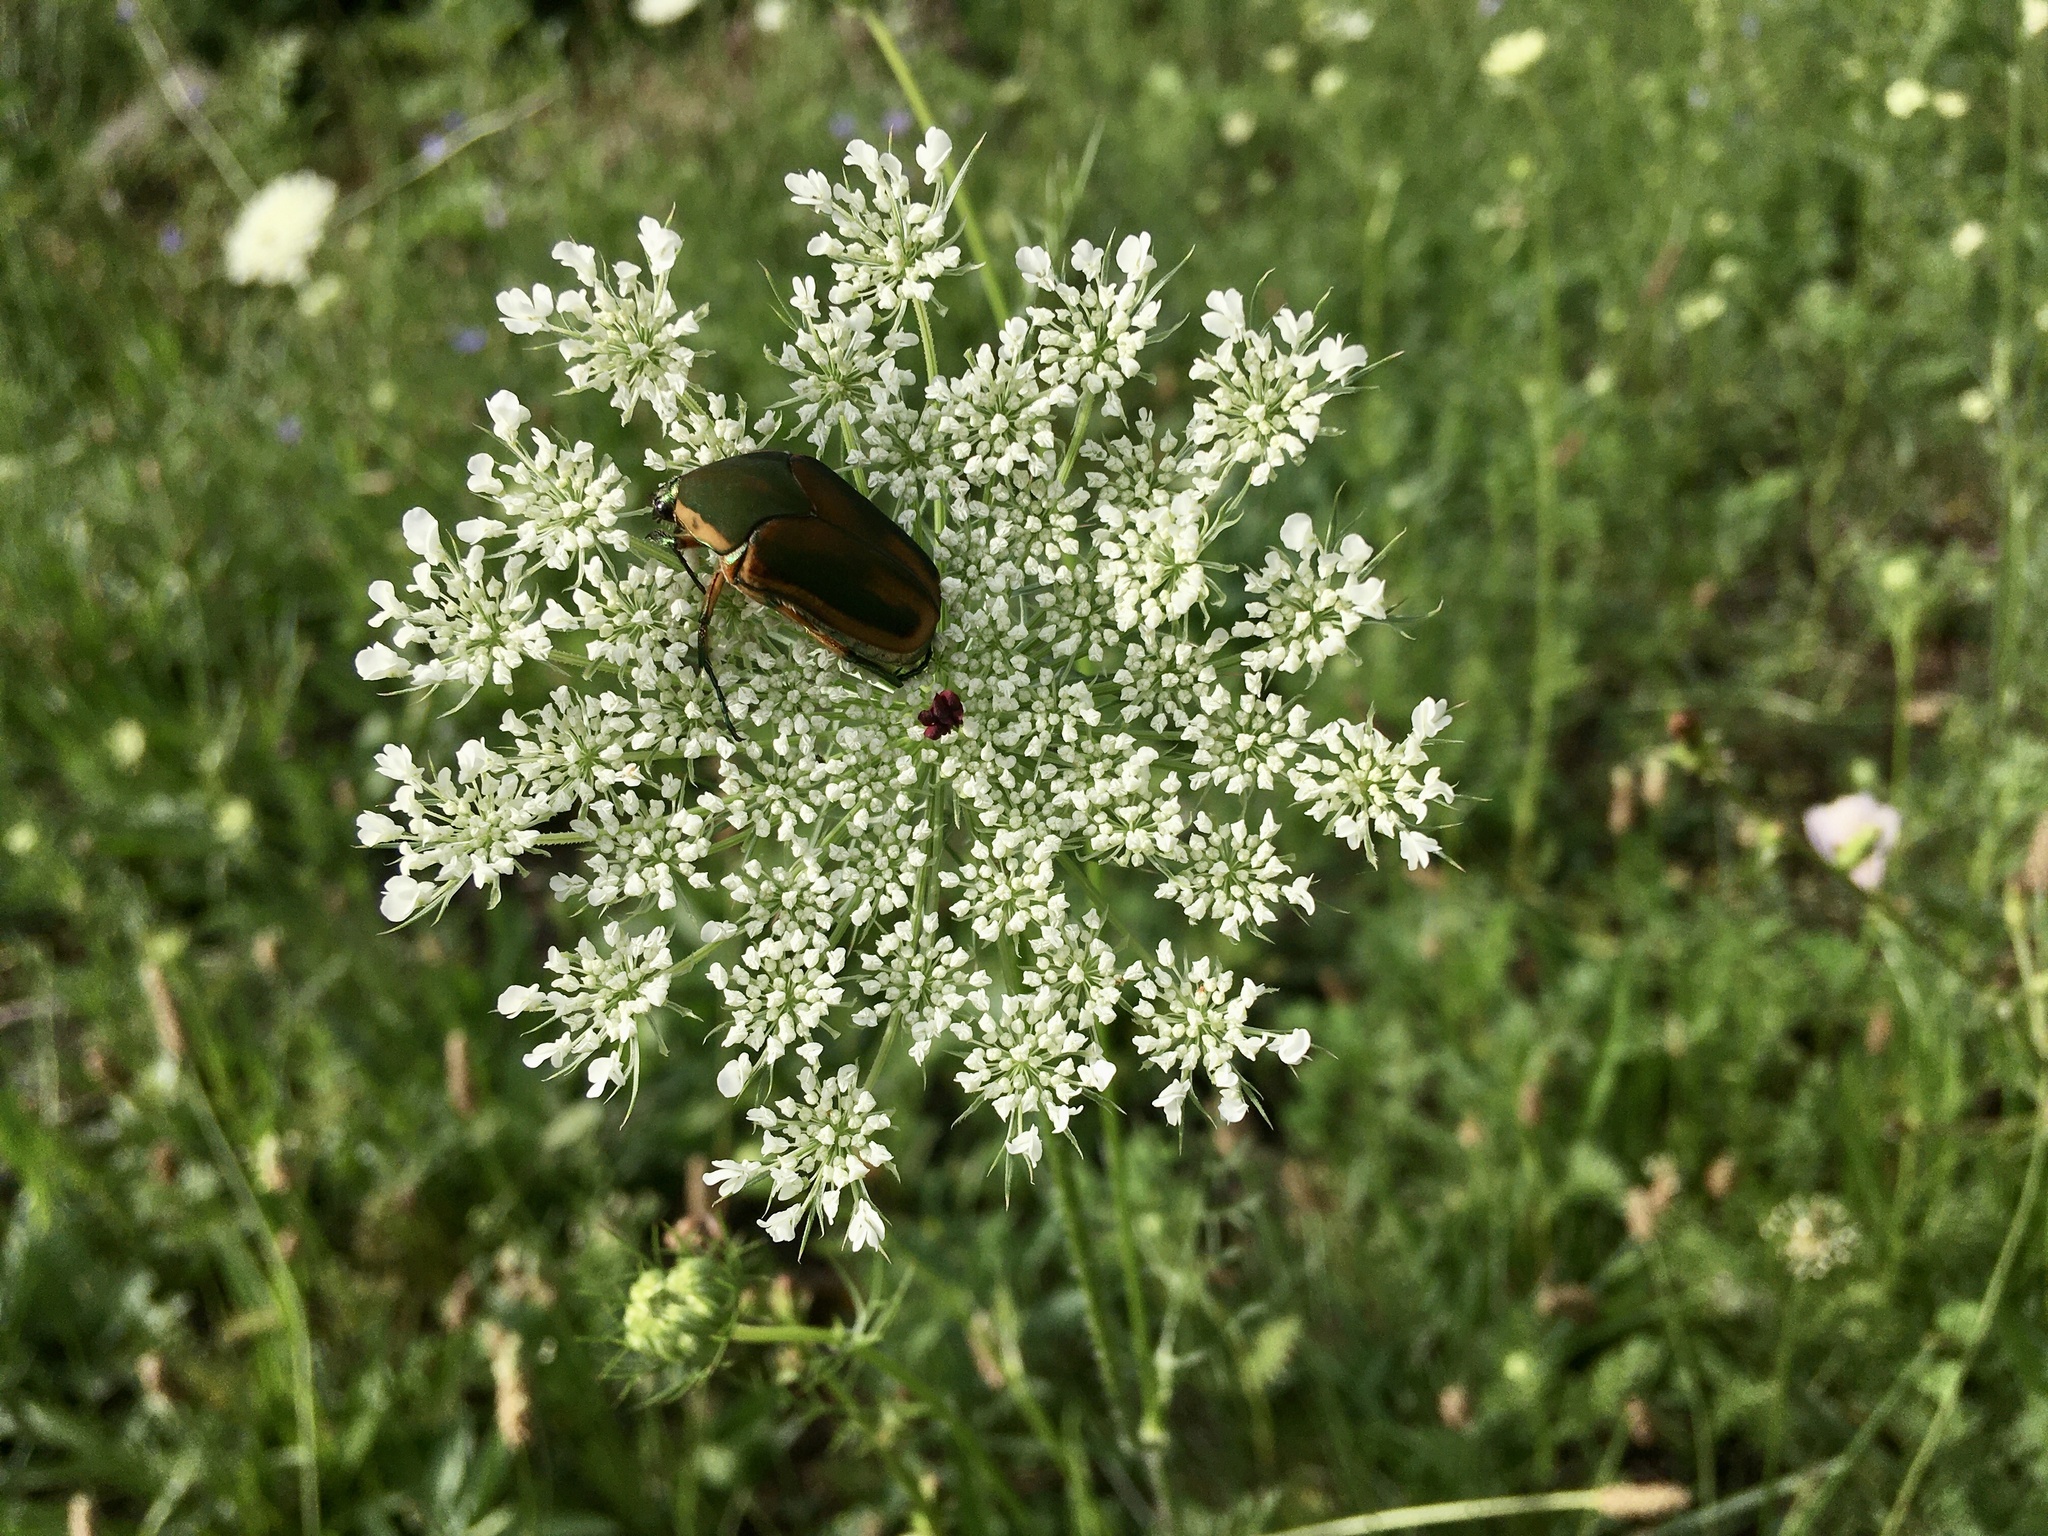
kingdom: Animalia
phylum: Arthropoda
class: Insecta
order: Coleoptera
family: Scarabaeidae
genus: Cotinis
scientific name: Cotinis nitida
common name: Common green june beetle
